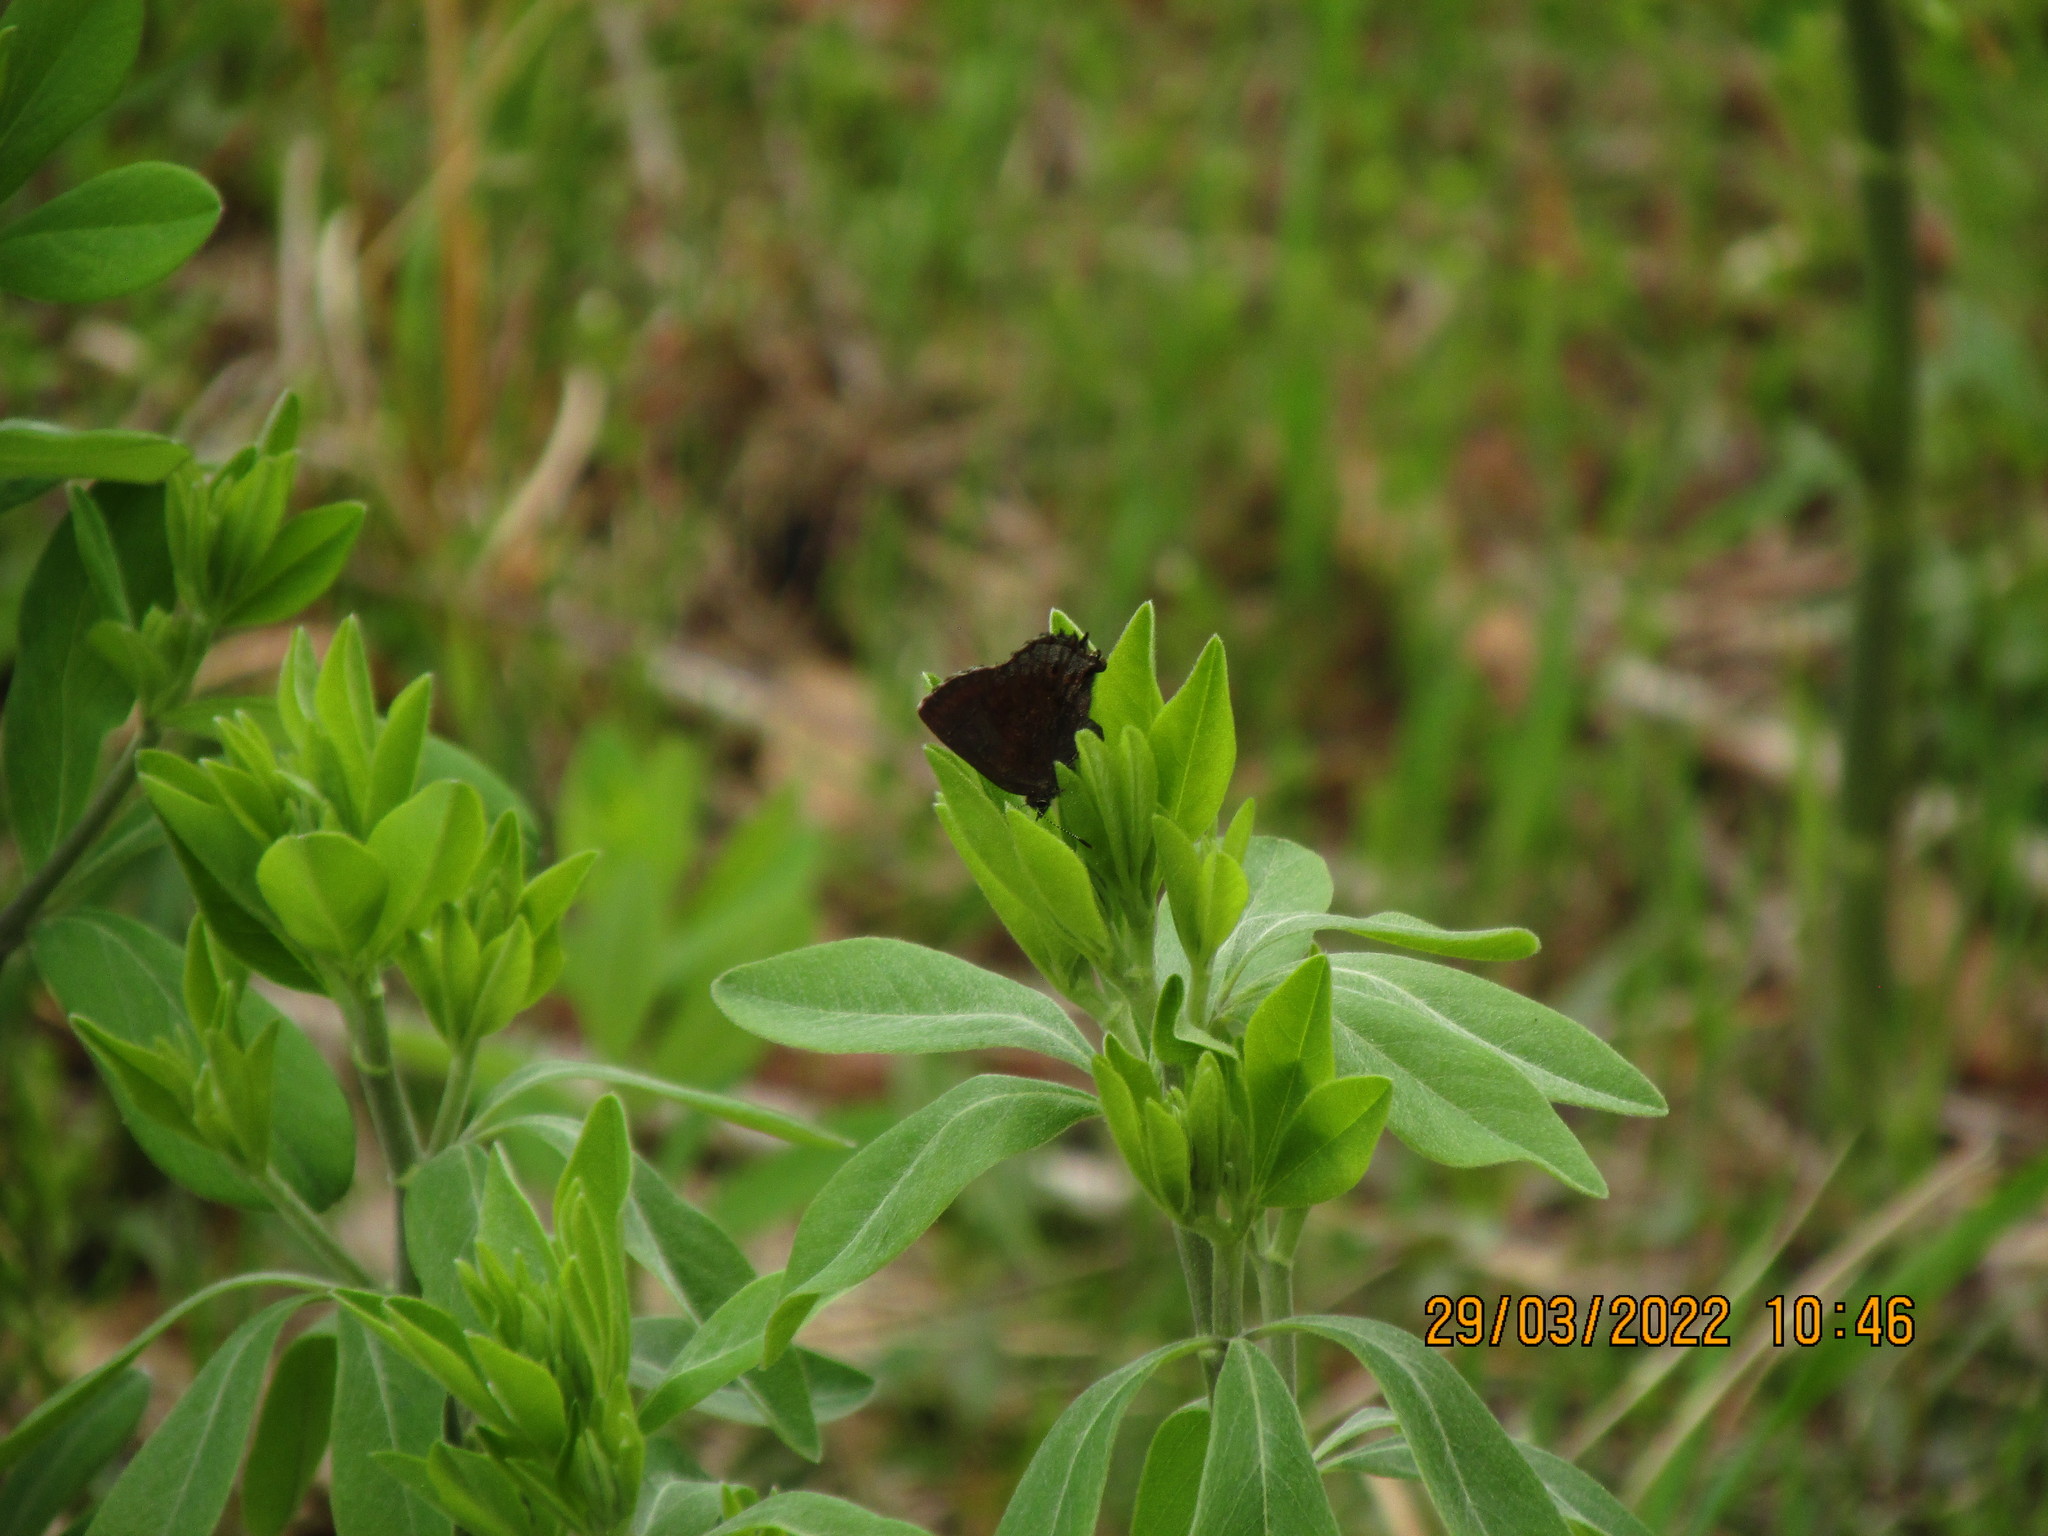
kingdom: Animalia
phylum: Arthropoda
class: Insecta
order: Lepidoptera
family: Lycaenidae
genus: Thecla
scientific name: Thecla irus
